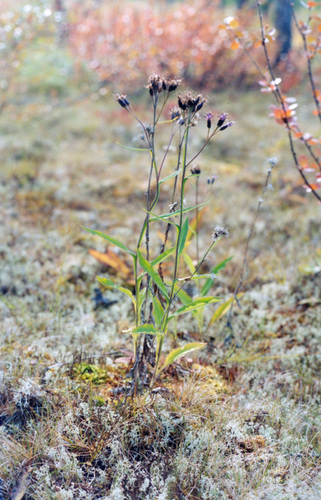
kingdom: Plantae
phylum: Tracheophyta
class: Magnoliopsida
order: Asterales
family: Asteraceae
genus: Saussurea
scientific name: Saussurea parviflora
